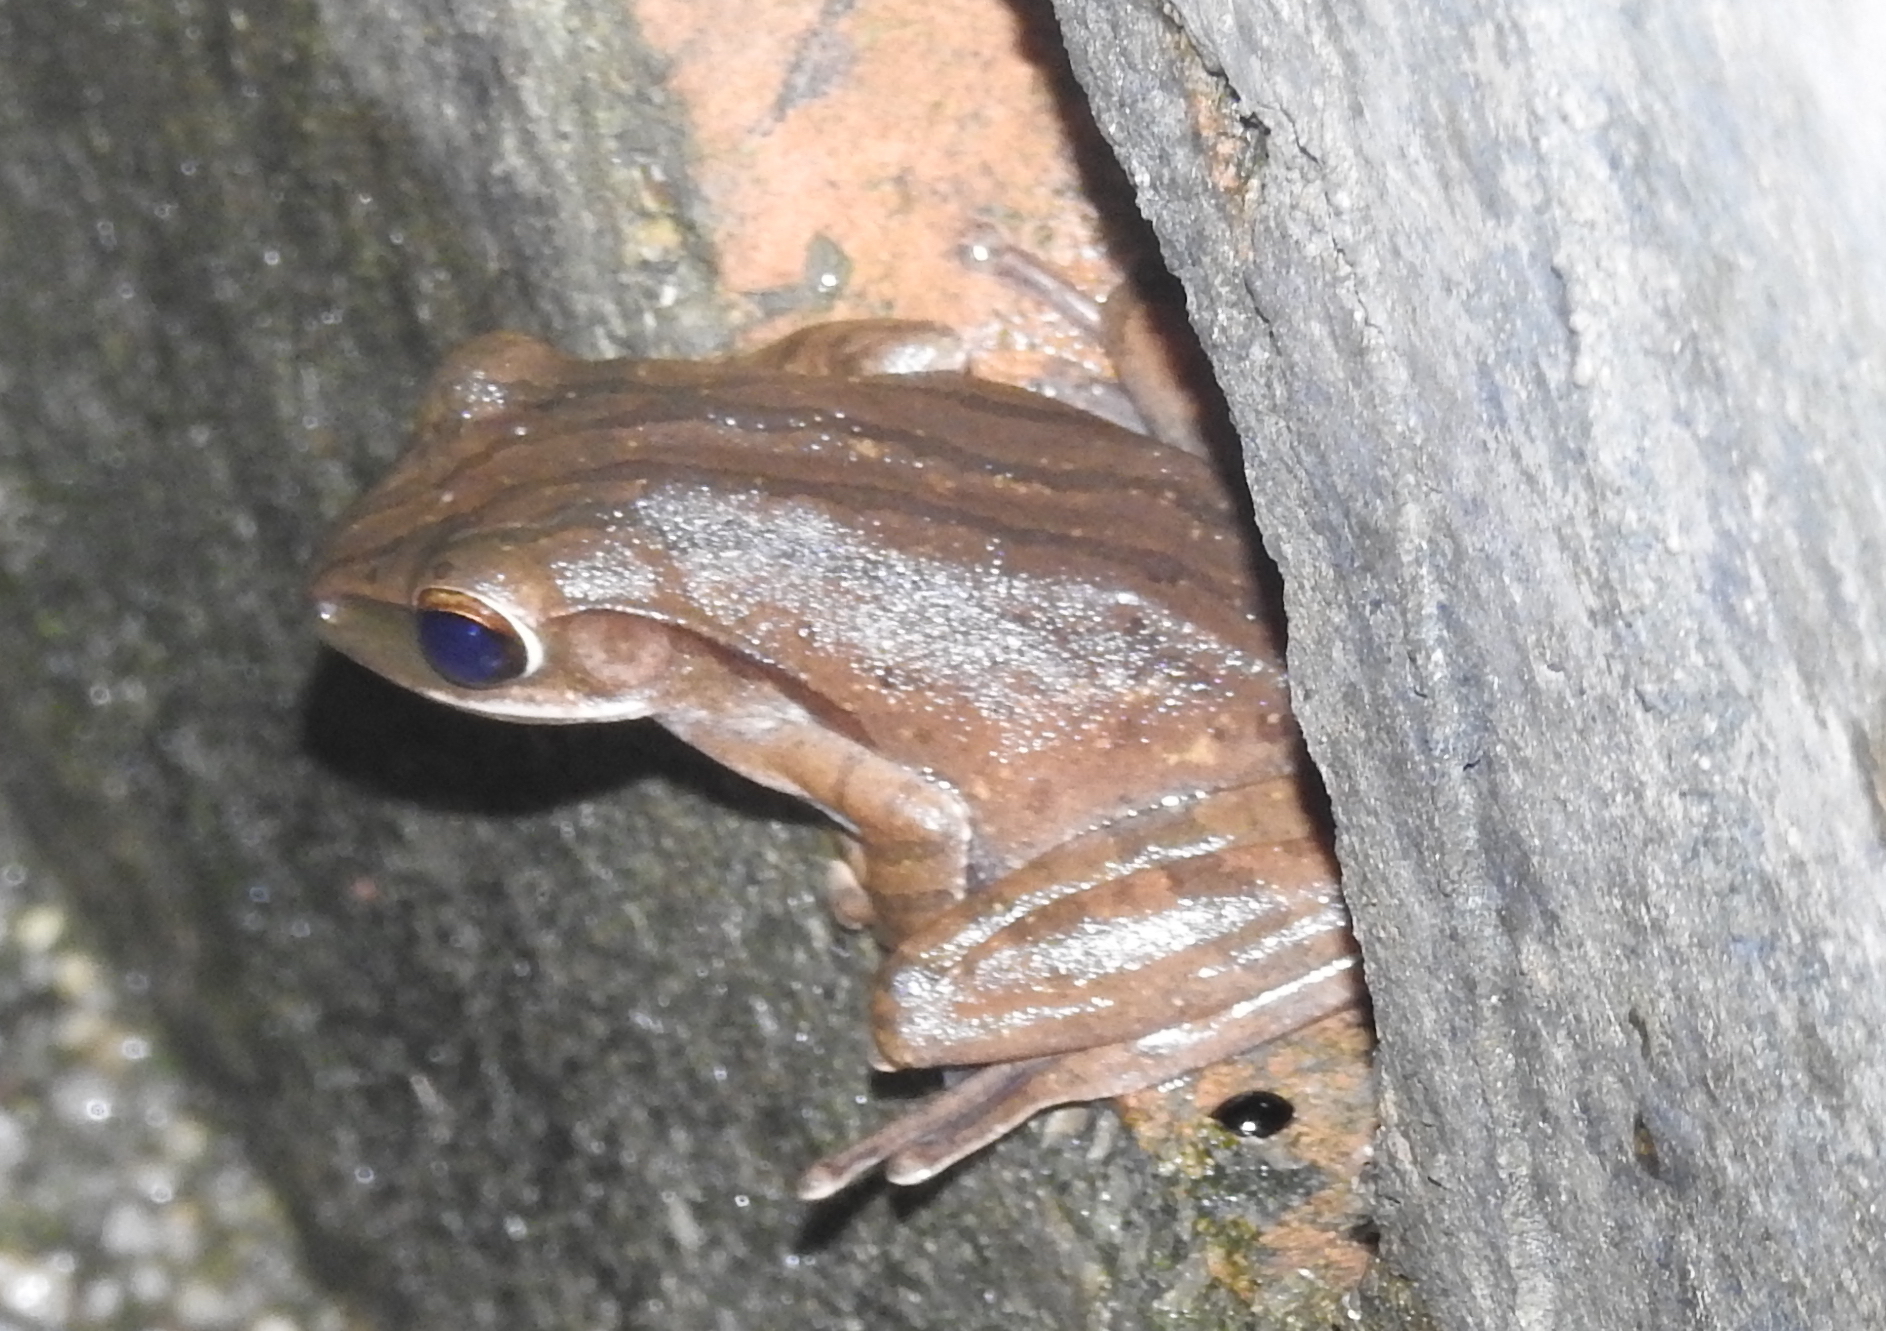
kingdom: Animalia
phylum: Chordata
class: Amphibia
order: Anura
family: Rhacophoridae
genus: Polypedates
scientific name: Polypedates leucomystax
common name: Common tree frog/four-lined tree frog
